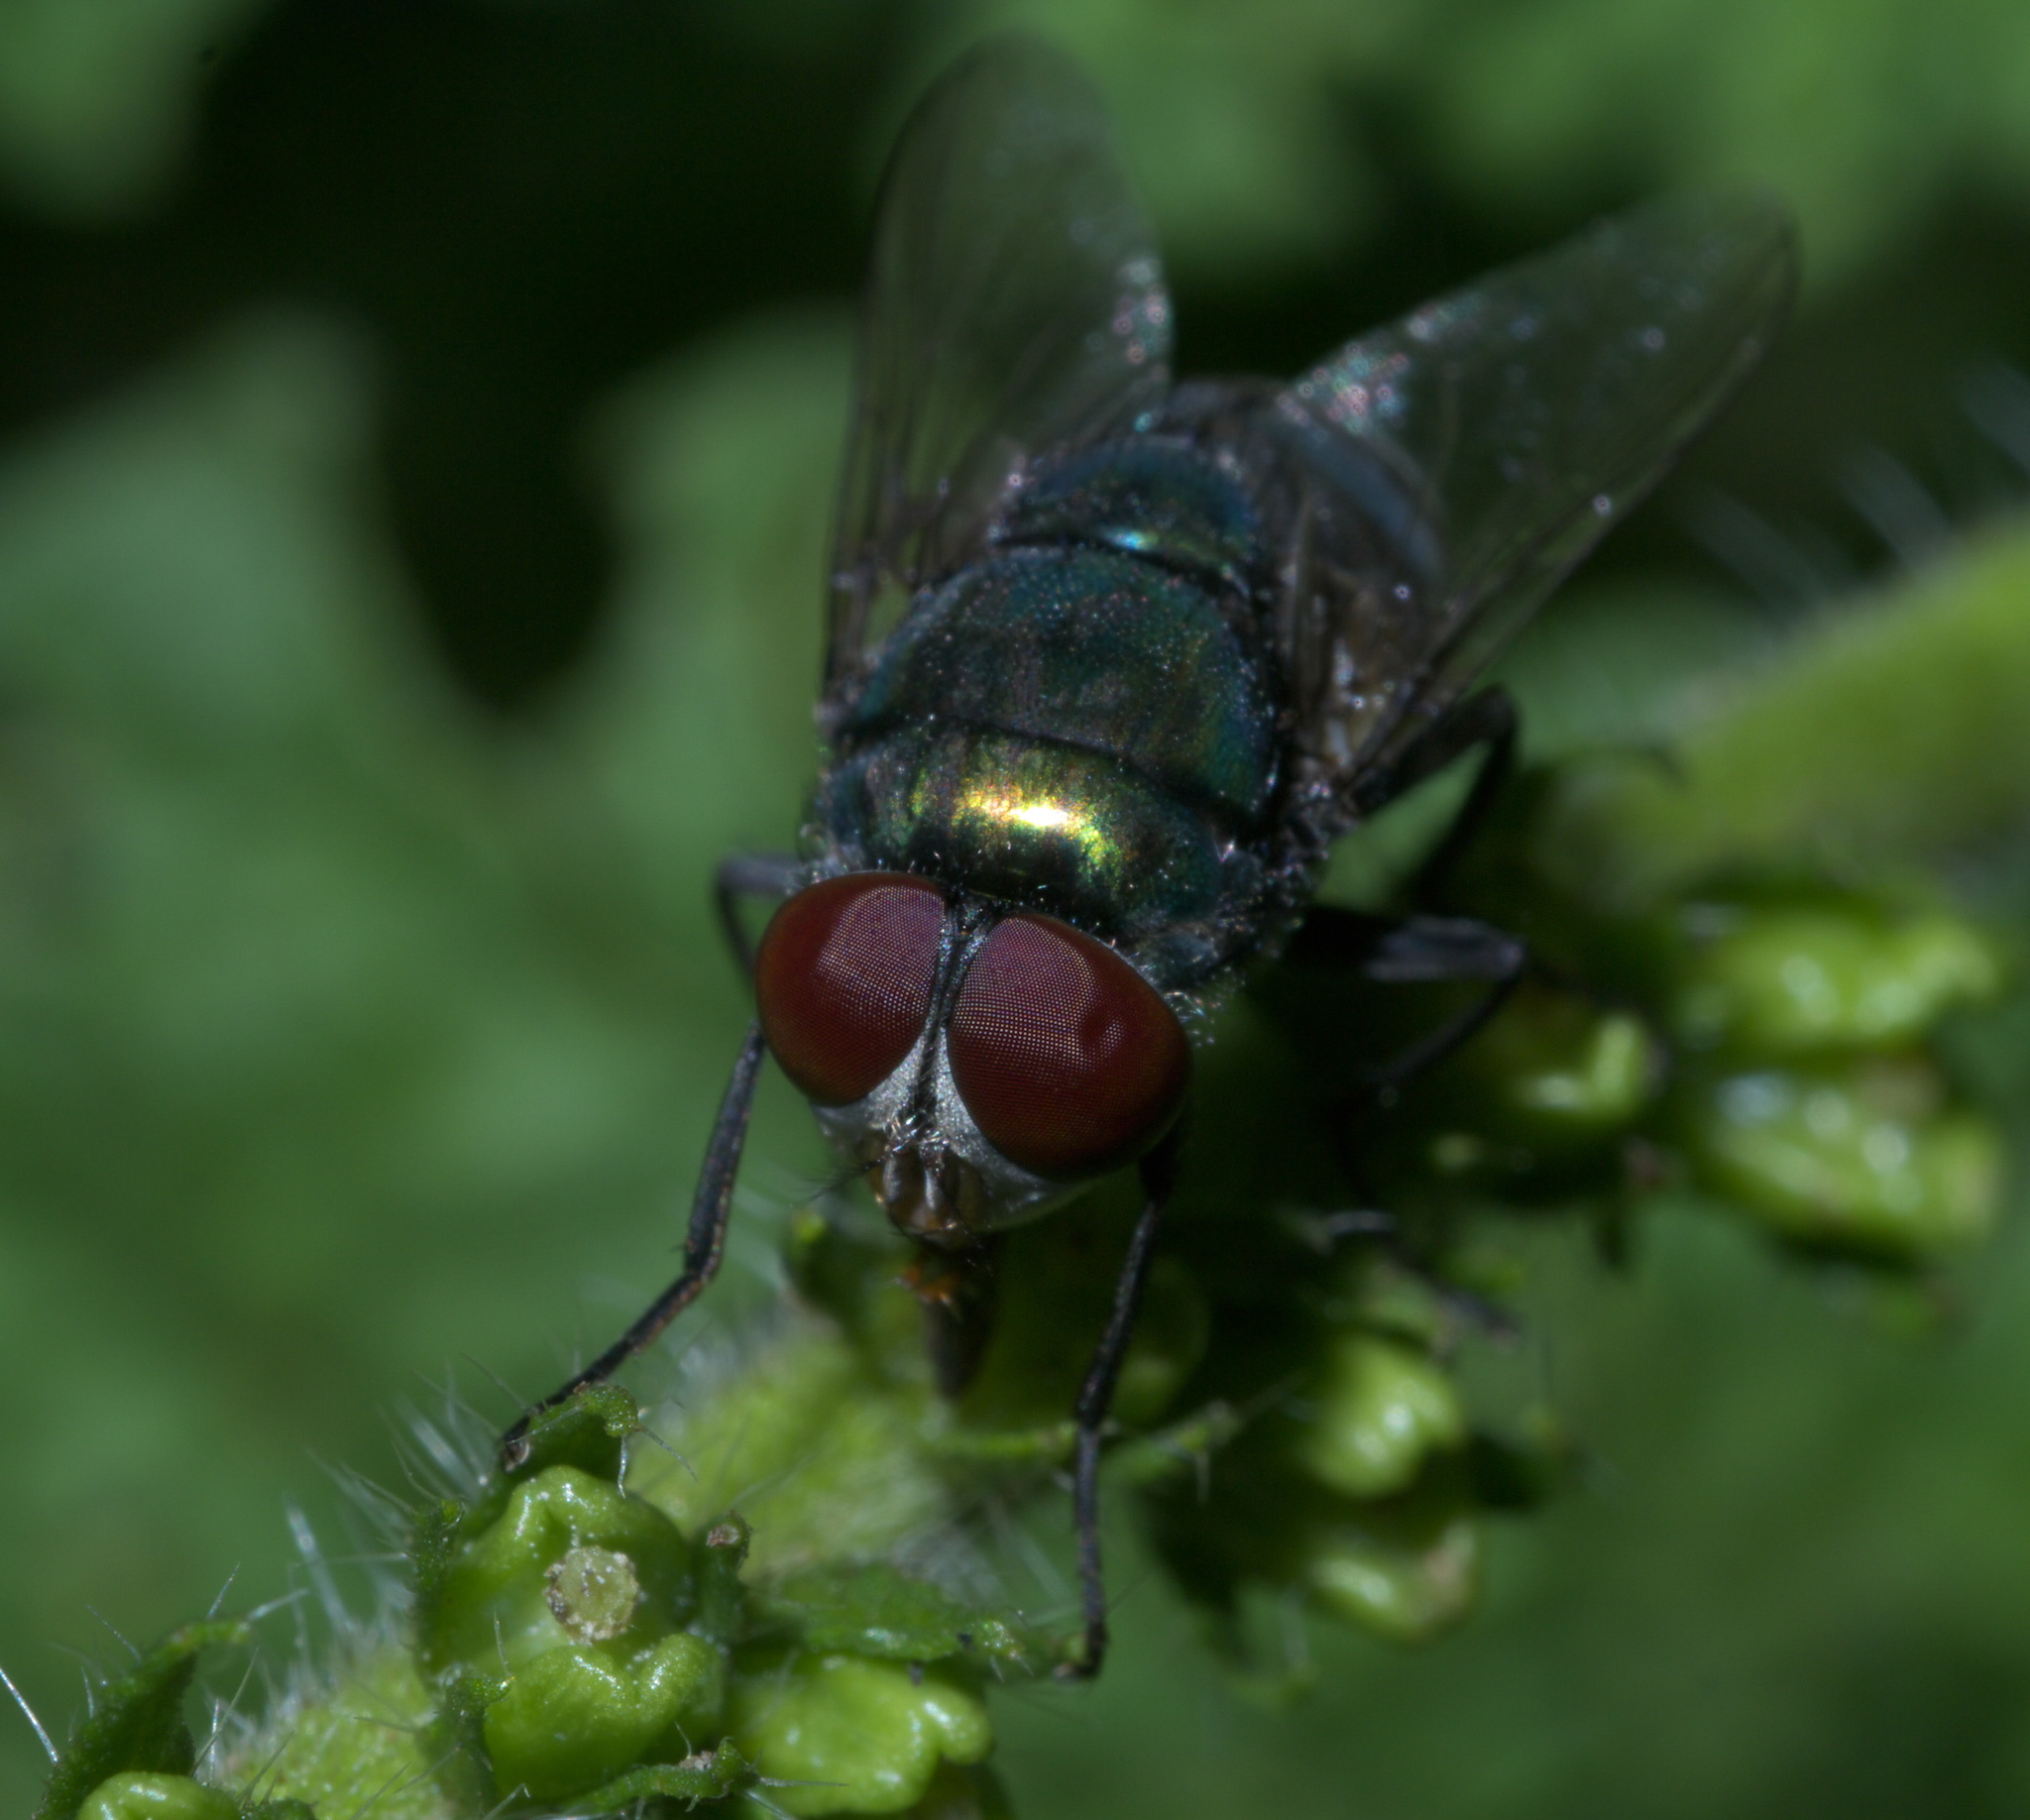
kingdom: Animalia
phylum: Arthropoda
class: Insecta
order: Diptera
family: Calliphoridae
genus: Chrysomya
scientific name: Chrysomya rufifacies
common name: Blow fly
